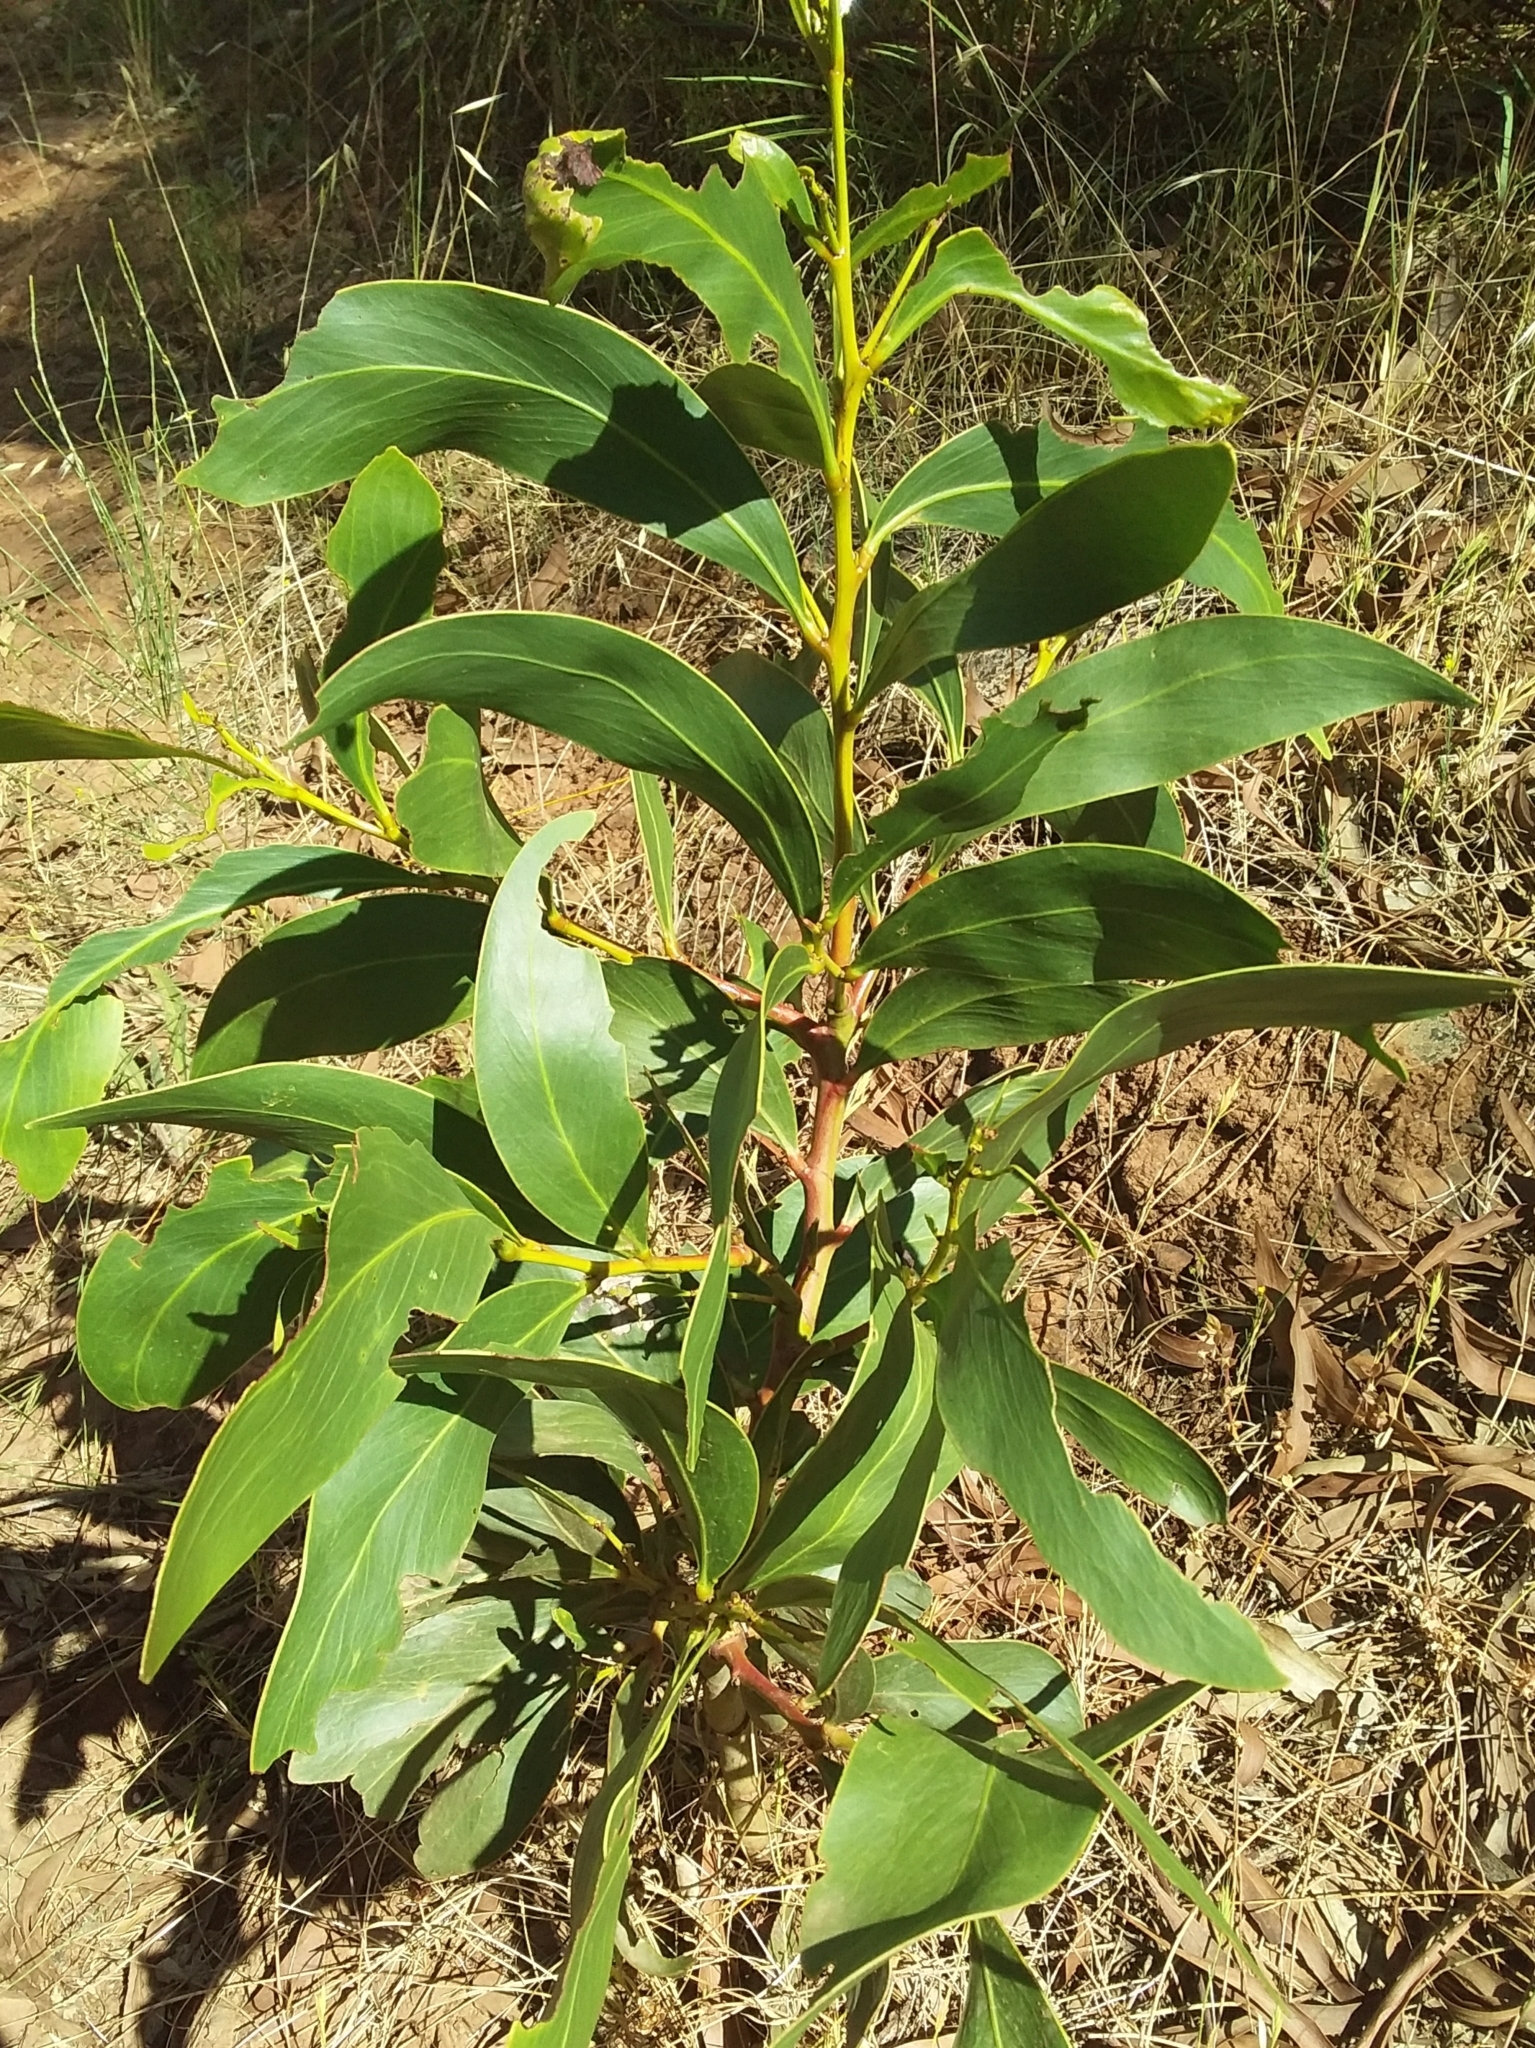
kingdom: Plantae
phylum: Tracheophyta
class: Magnoliopsida
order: Fabales
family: Fabaceae
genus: Acacia
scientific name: Acacia pycnantha
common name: Golden wattle
